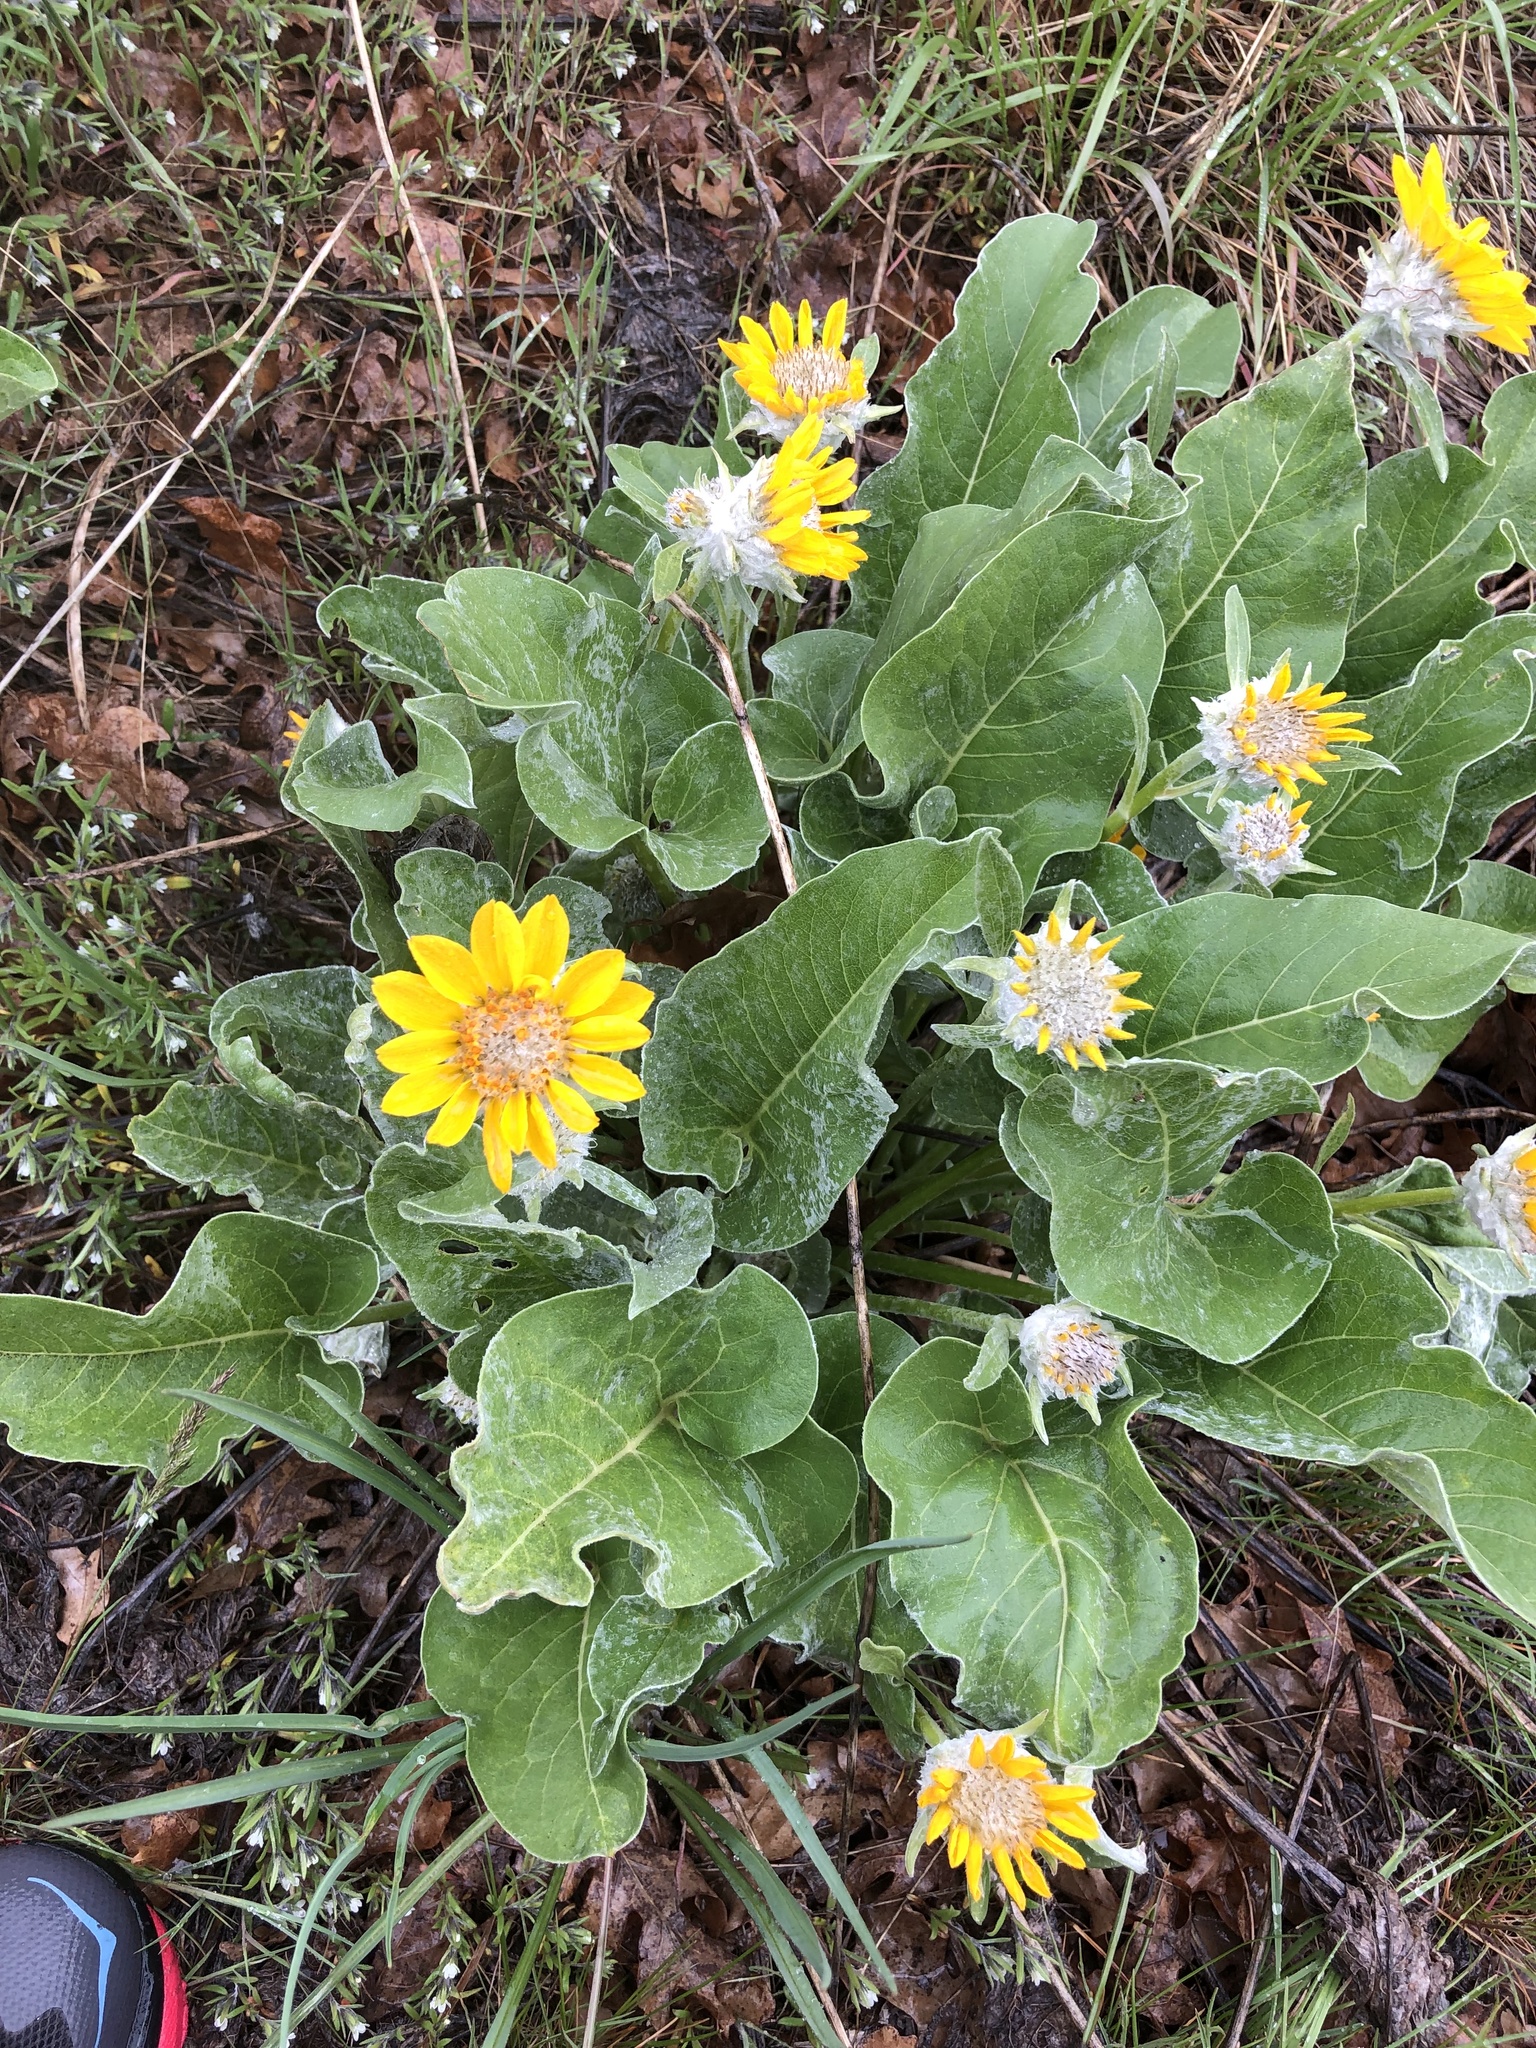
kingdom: Plantae
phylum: Tracheophyta
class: Magnoliopsida
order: Asterales
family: Asteraceae
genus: Wyethia
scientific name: Wyethia sagittata
